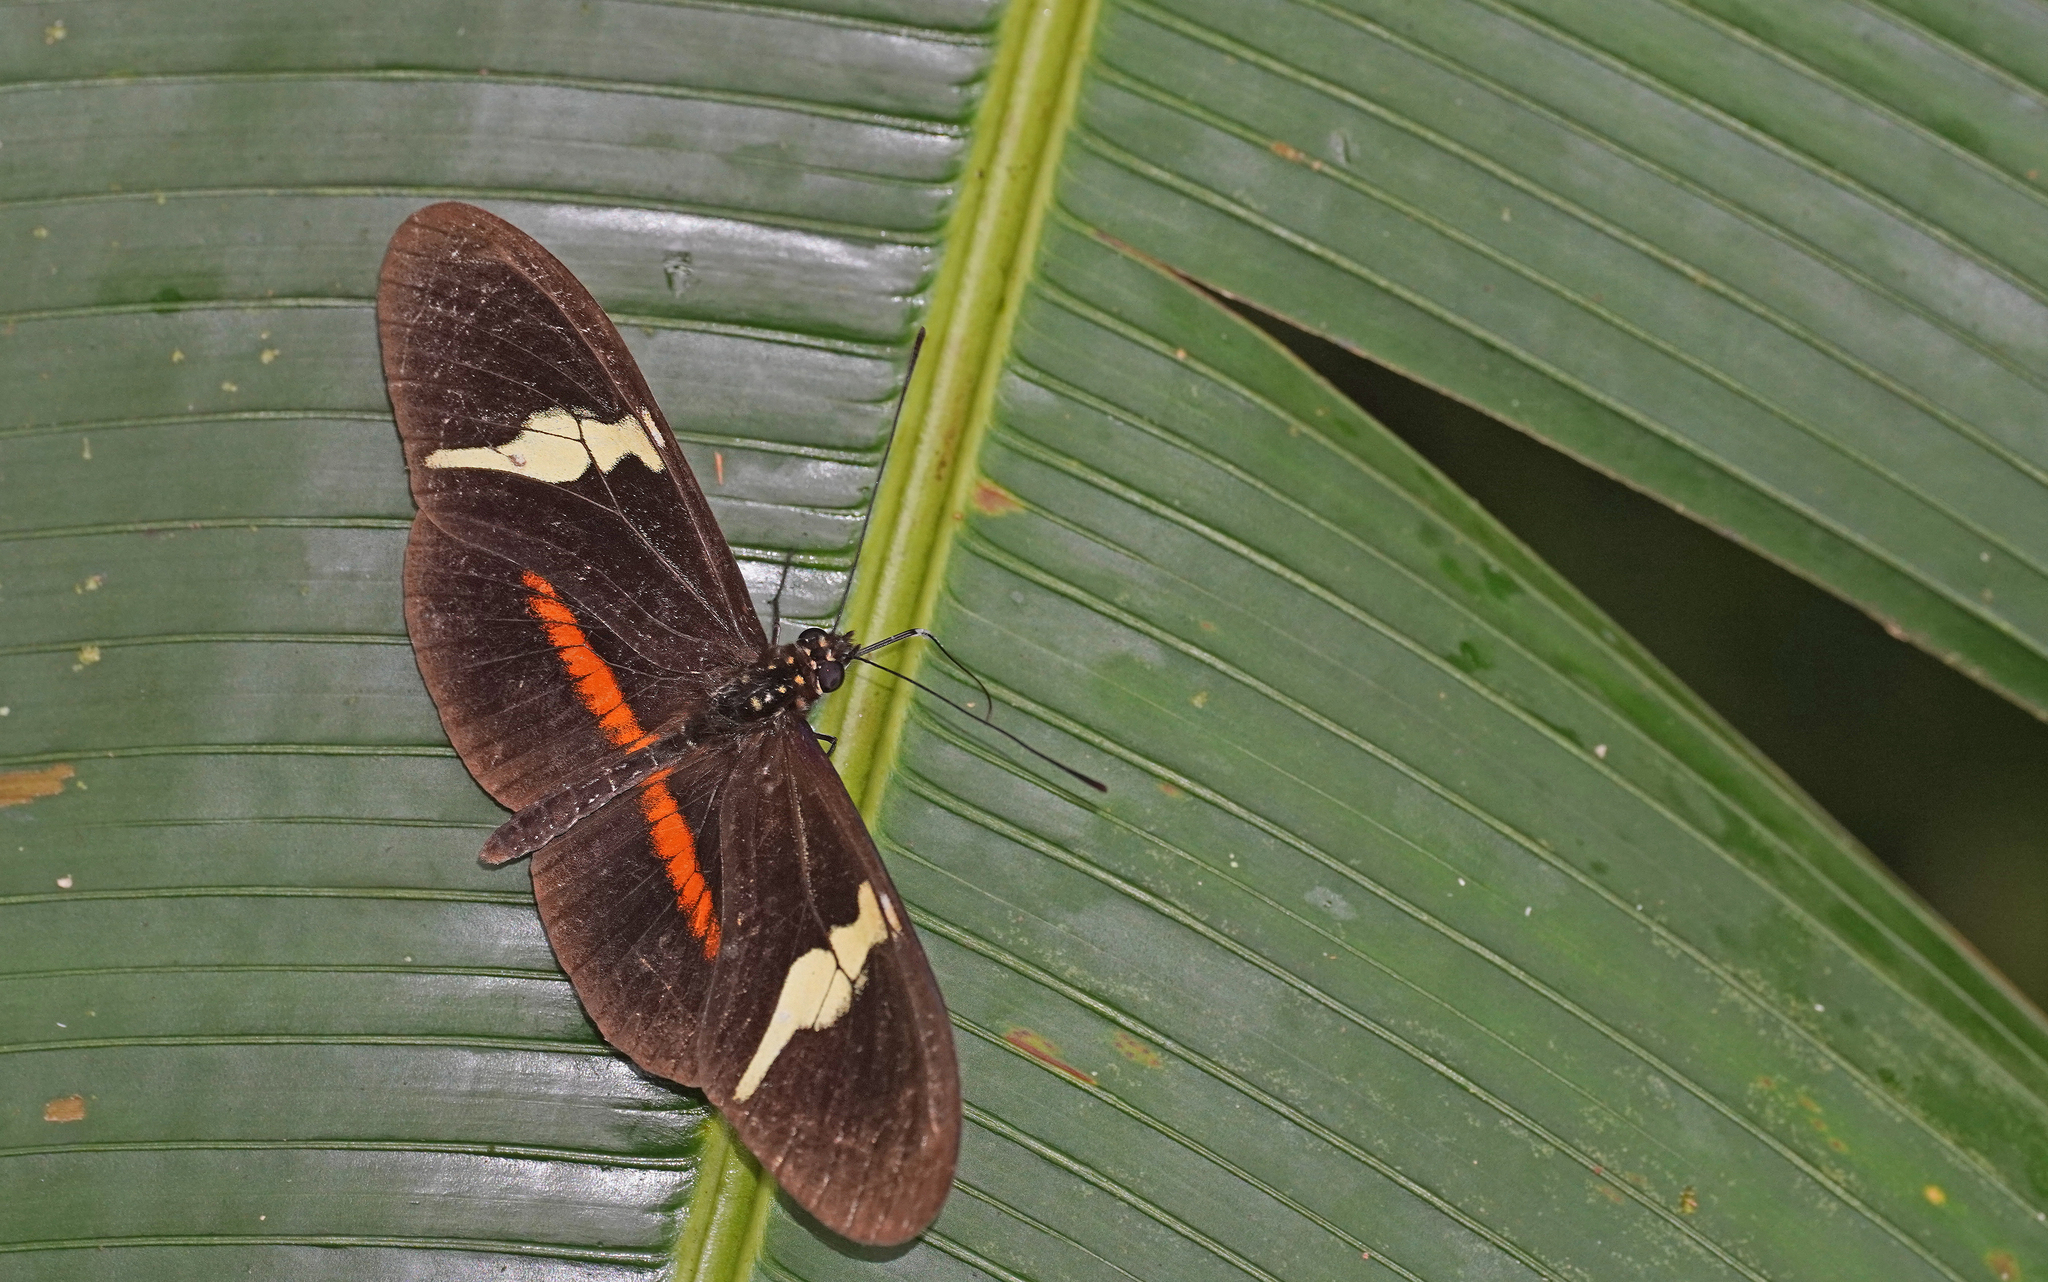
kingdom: Animalia
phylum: Arthropoda
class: Insecta
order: Lepidoptera
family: Nymphalidae
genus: Heliconius
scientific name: Heliconius clysonymus
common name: Clysonymus longwing
